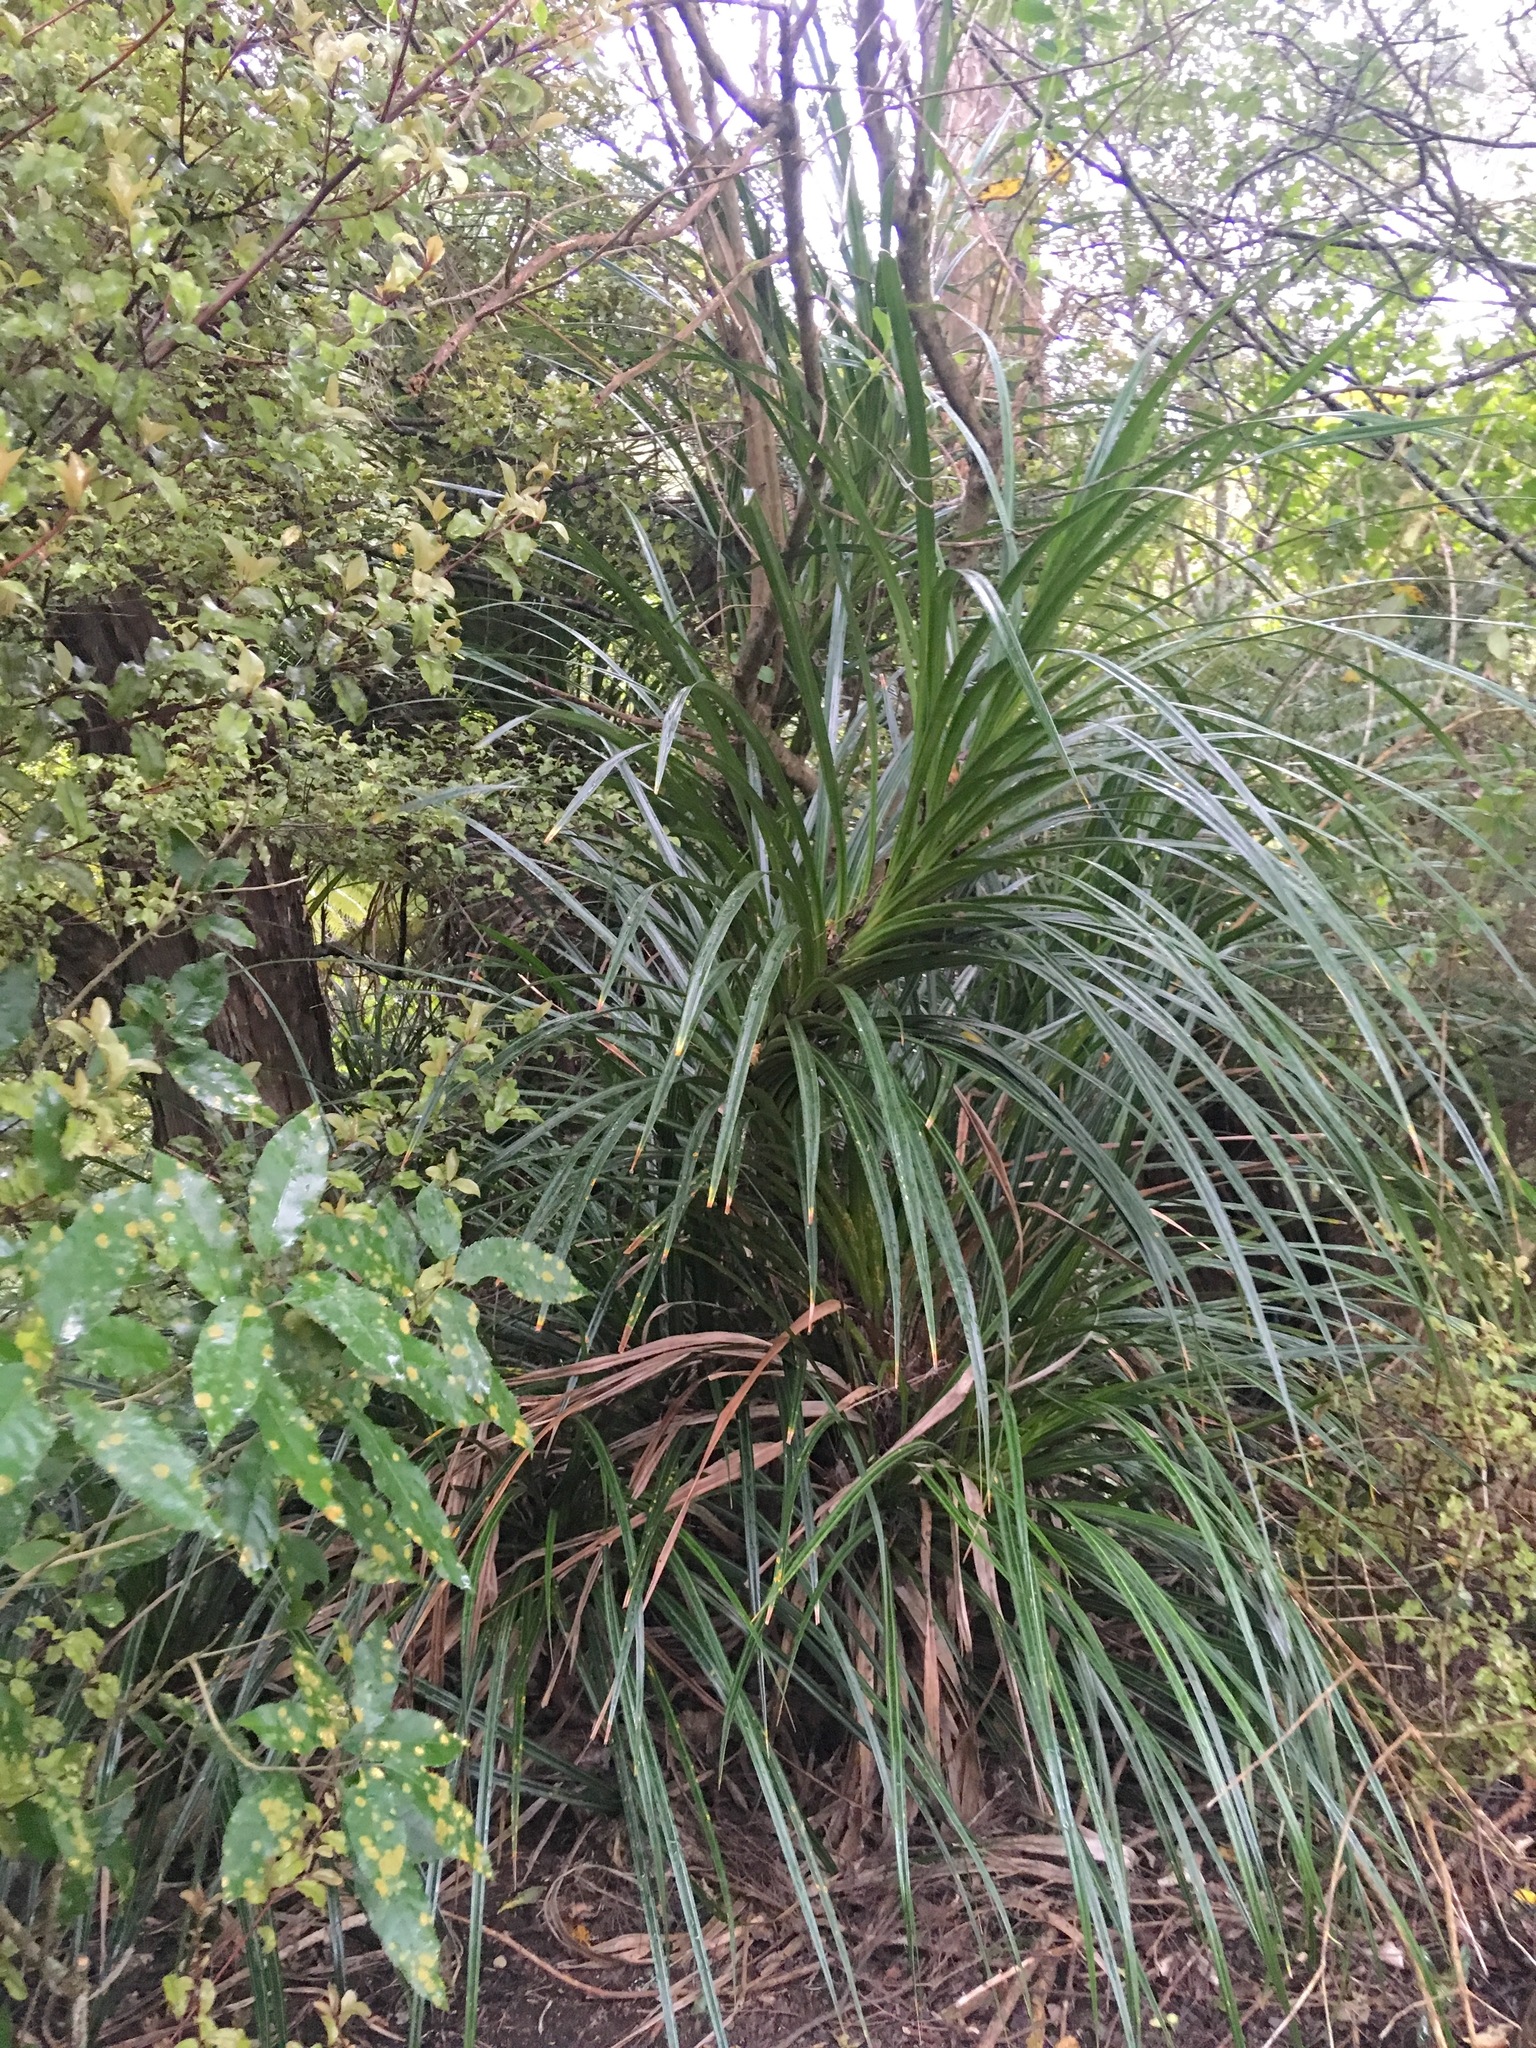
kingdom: Plantae
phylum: Tracheophyta
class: Liliopsida
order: Pandanales
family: Pandanaceae
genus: Freycinetia
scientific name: Freycinetia banksii
